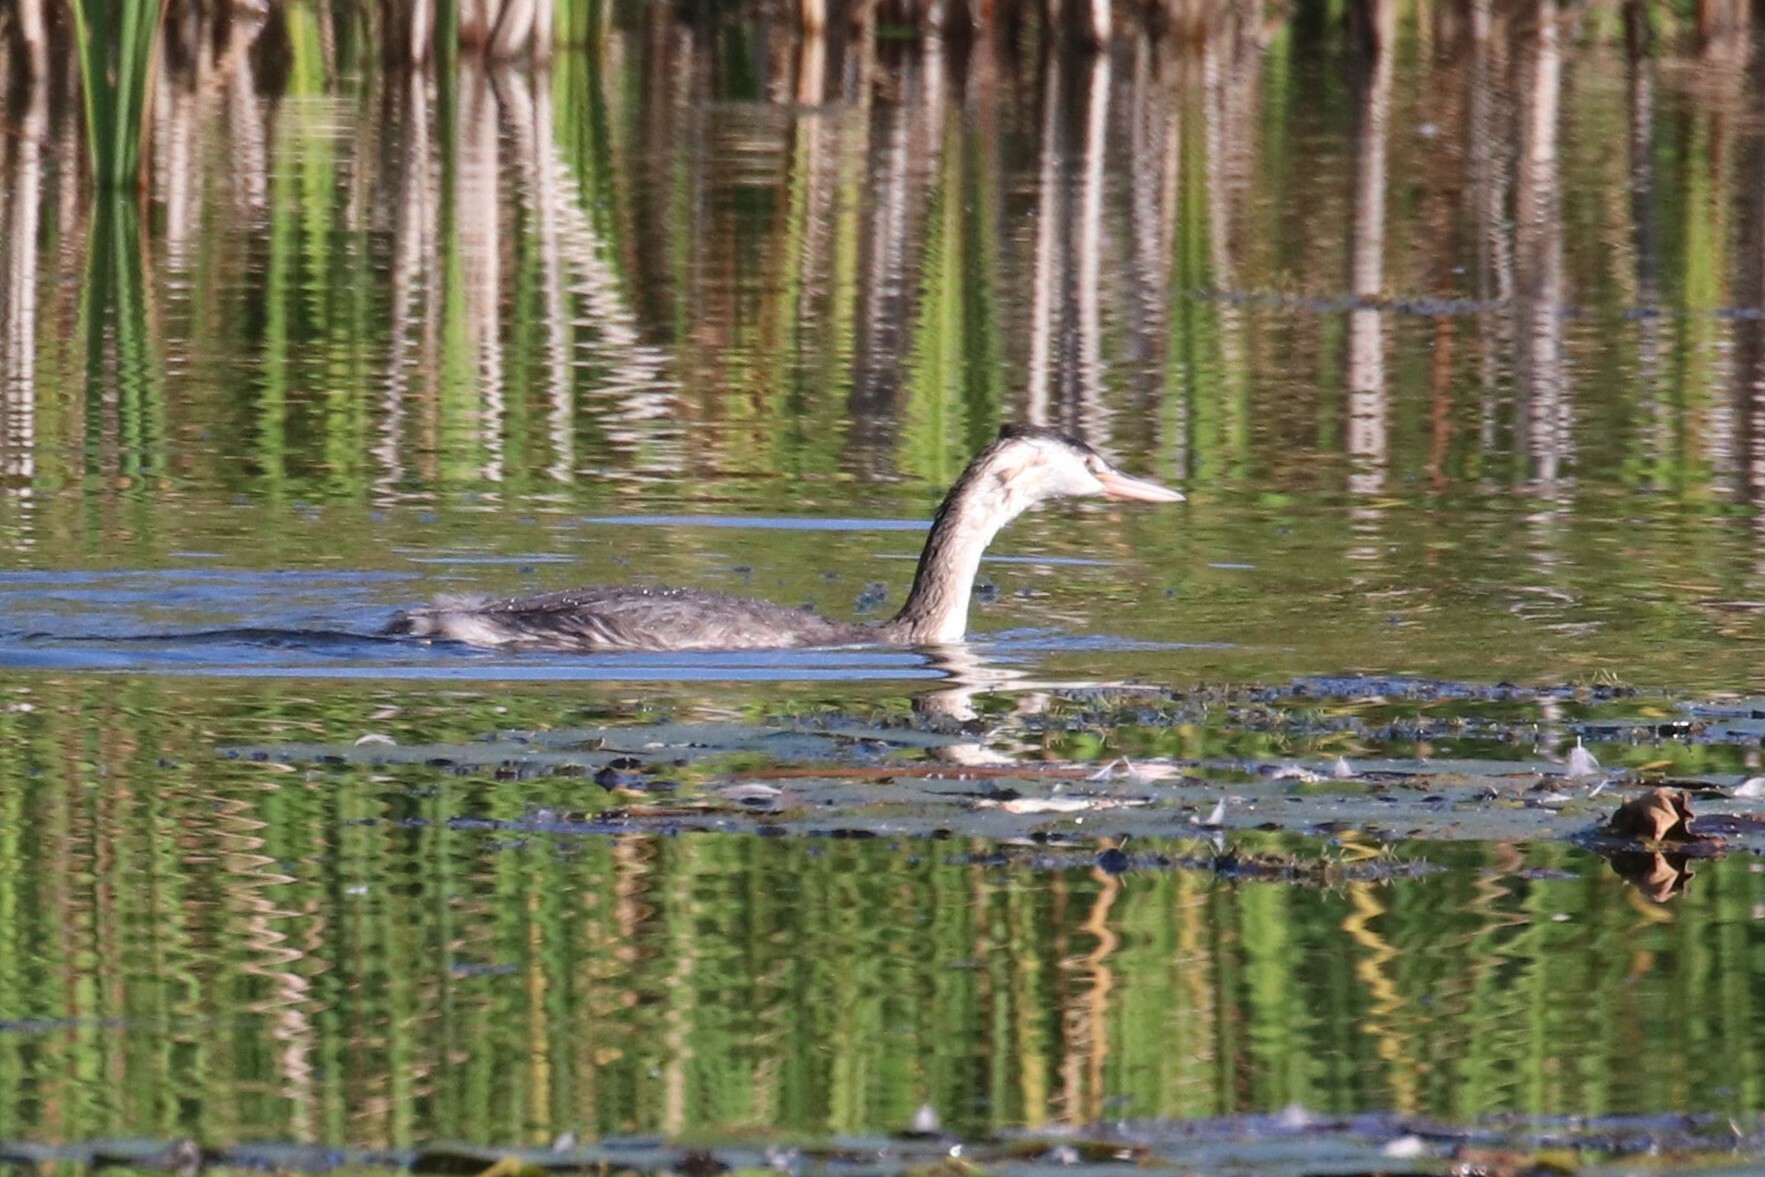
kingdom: Animalia
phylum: Chordata
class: Aves
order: Podicipediformes
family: Podicipedidae
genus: Podiceps
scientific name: Podiceps cristatus
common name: Great crested grebe
